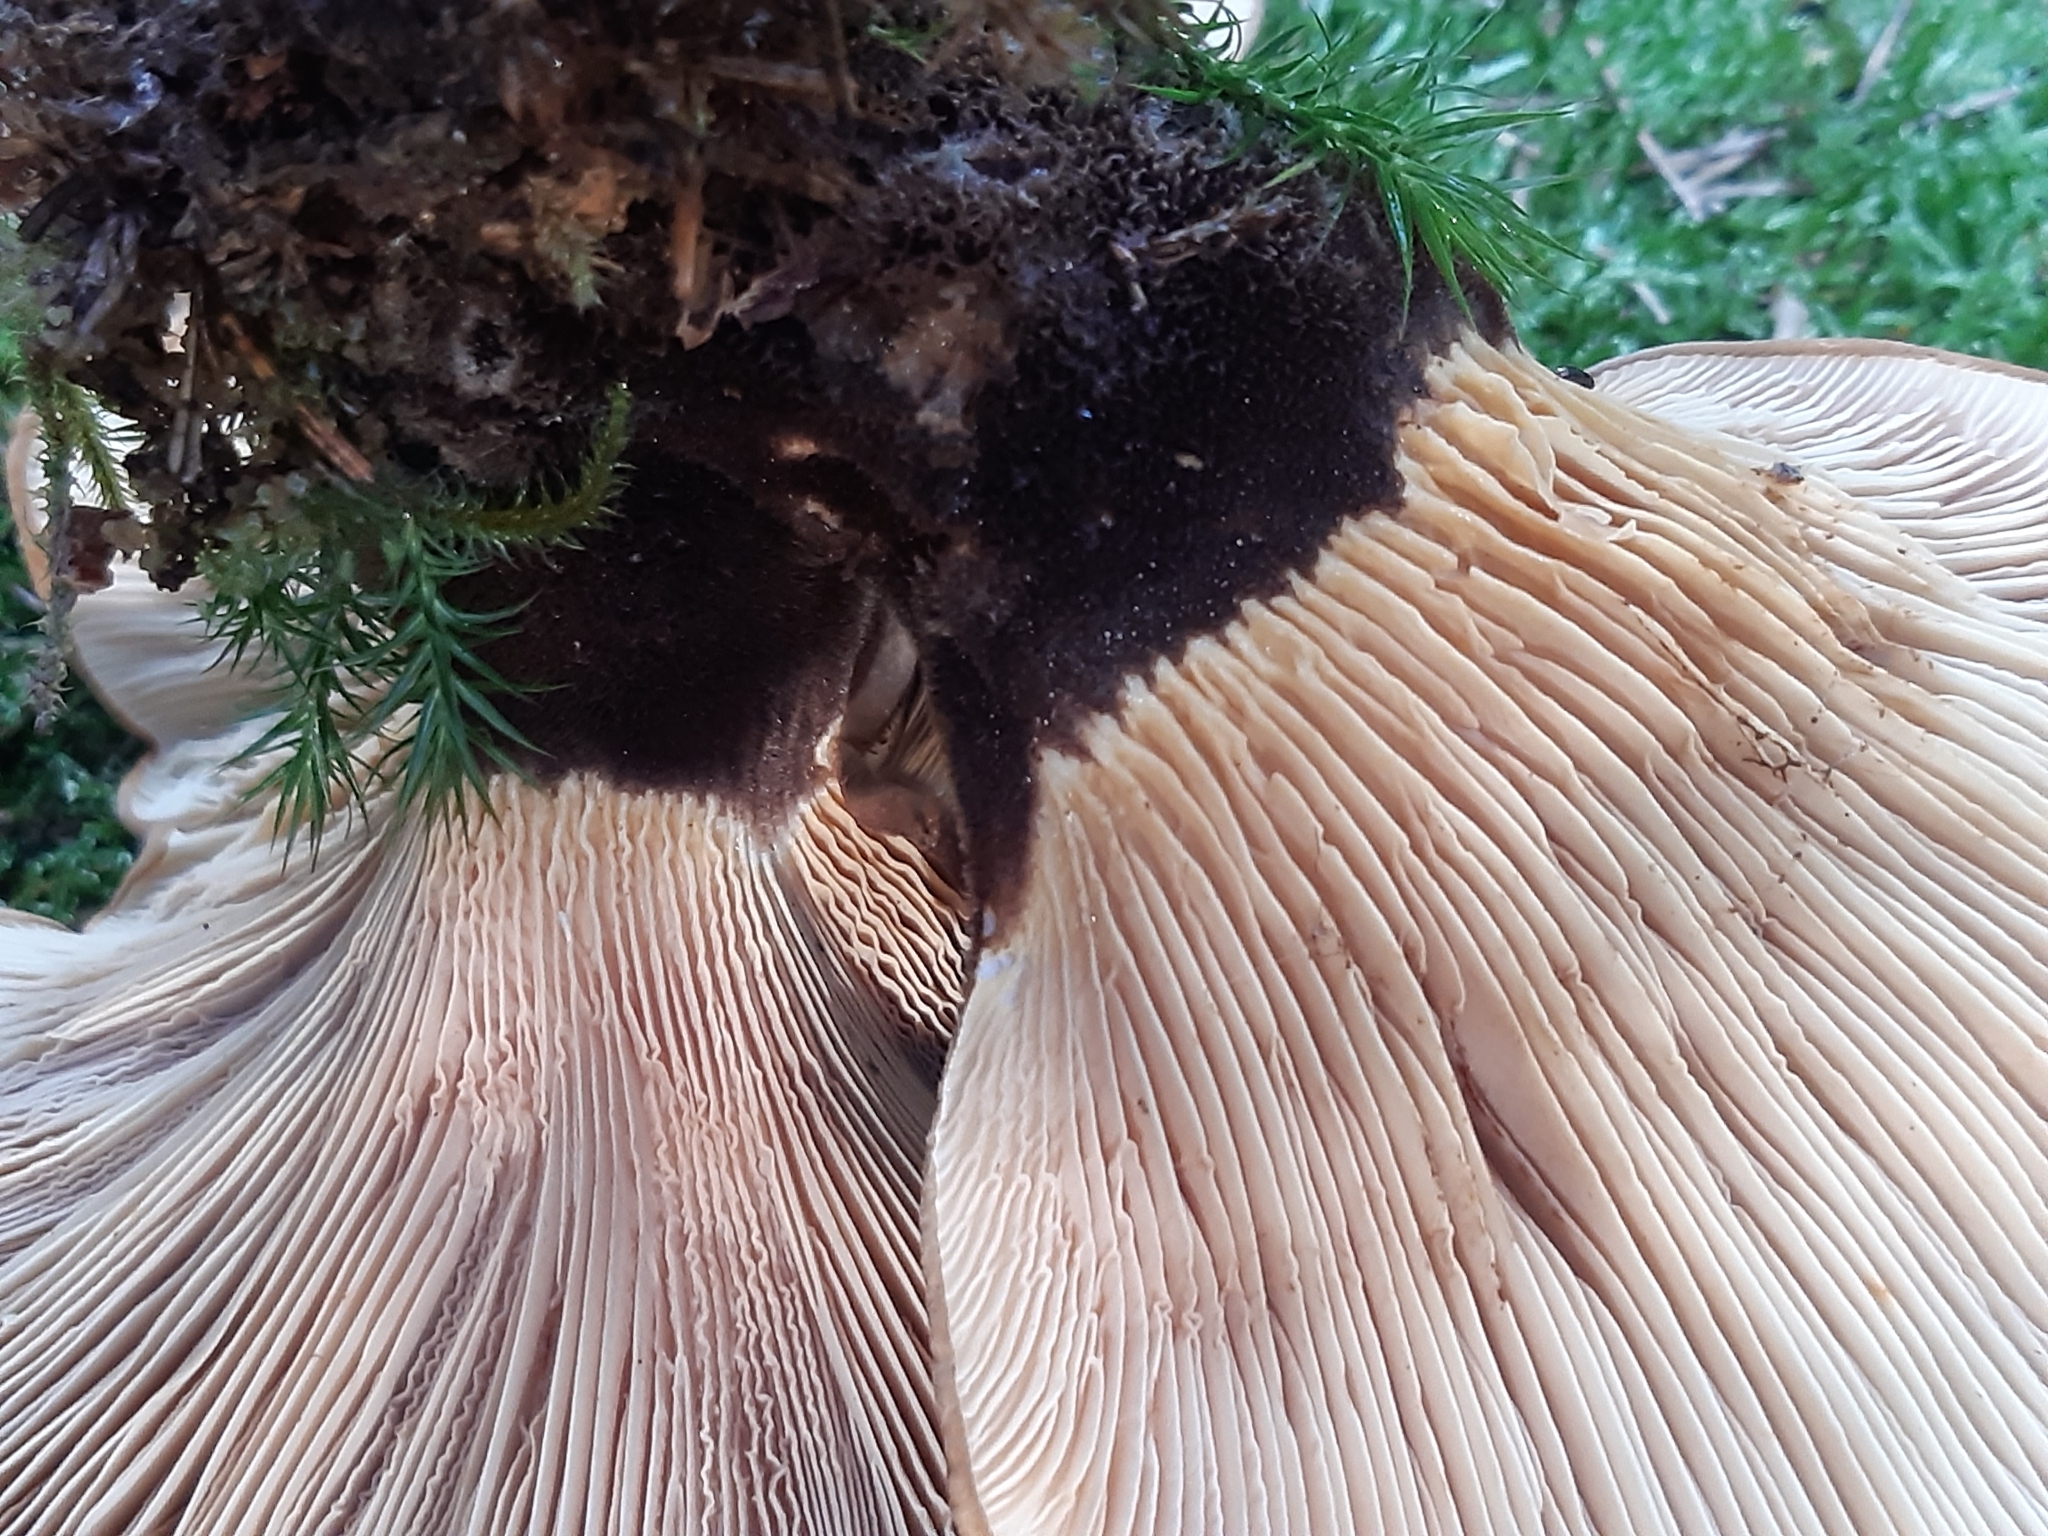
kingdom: Fungi
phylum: Basidiomycota
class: Agaricomycetes
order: Boletales
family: Tapinellaceae
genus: Tapinella
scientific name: Tapinella atrotomentosa
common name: Velvet rollrim
